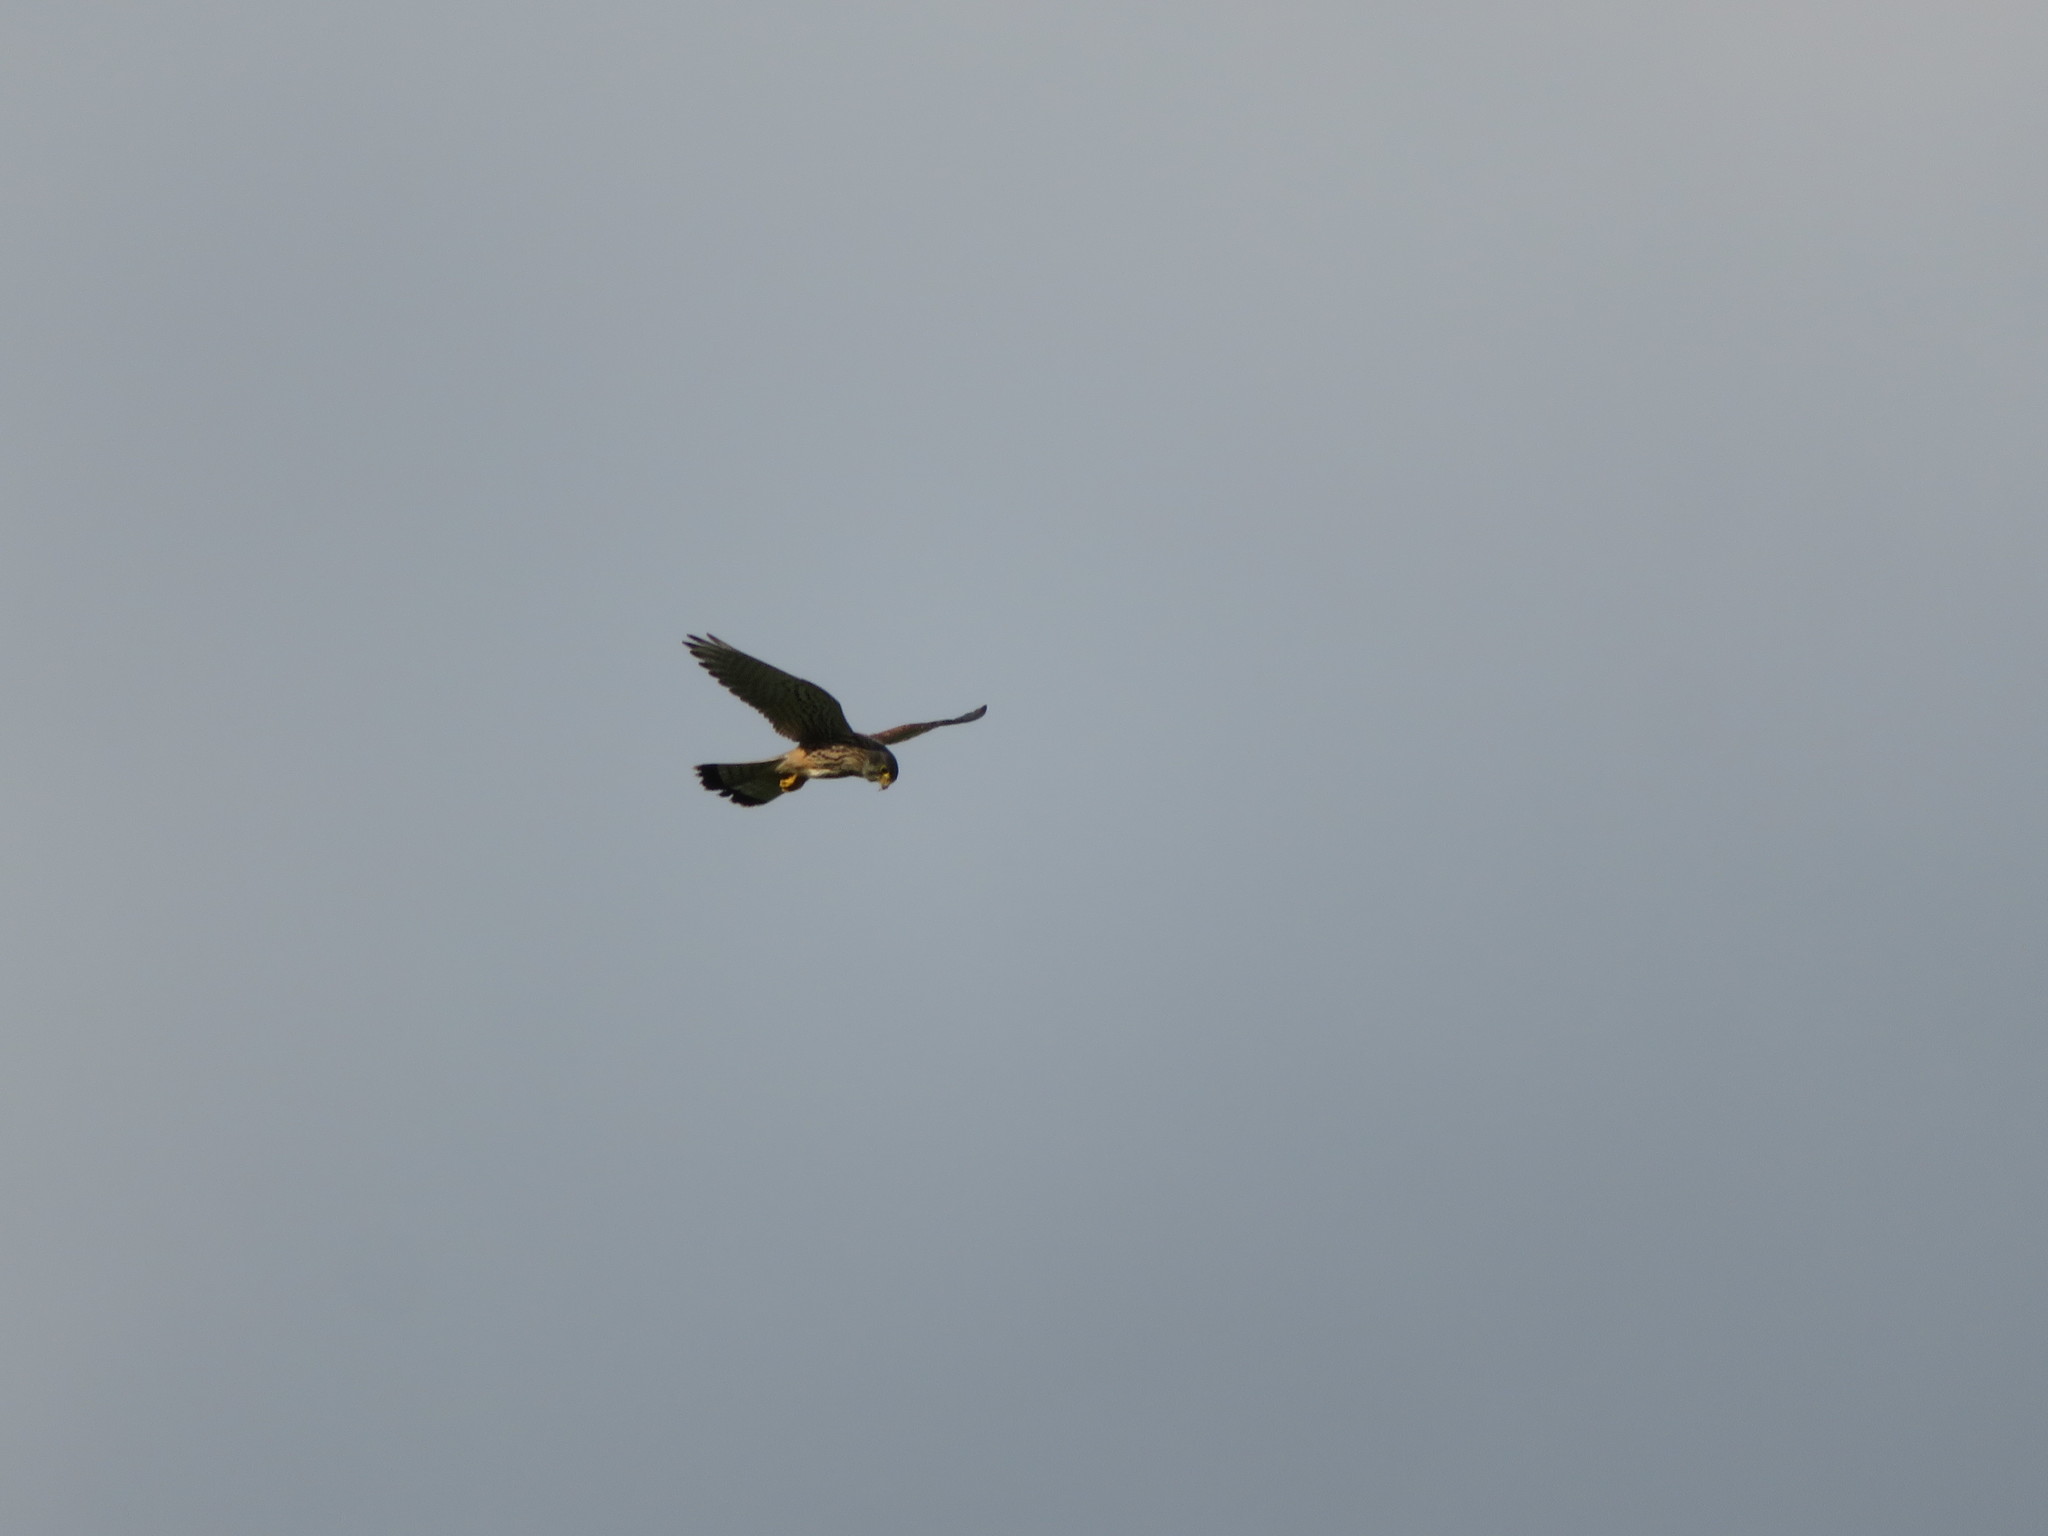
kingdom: Animalia
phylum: Chordata
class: Aves
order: Falconiformes
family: Falconidae
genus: Falco
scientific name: Falco tinnunculus
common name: Common kestrel
